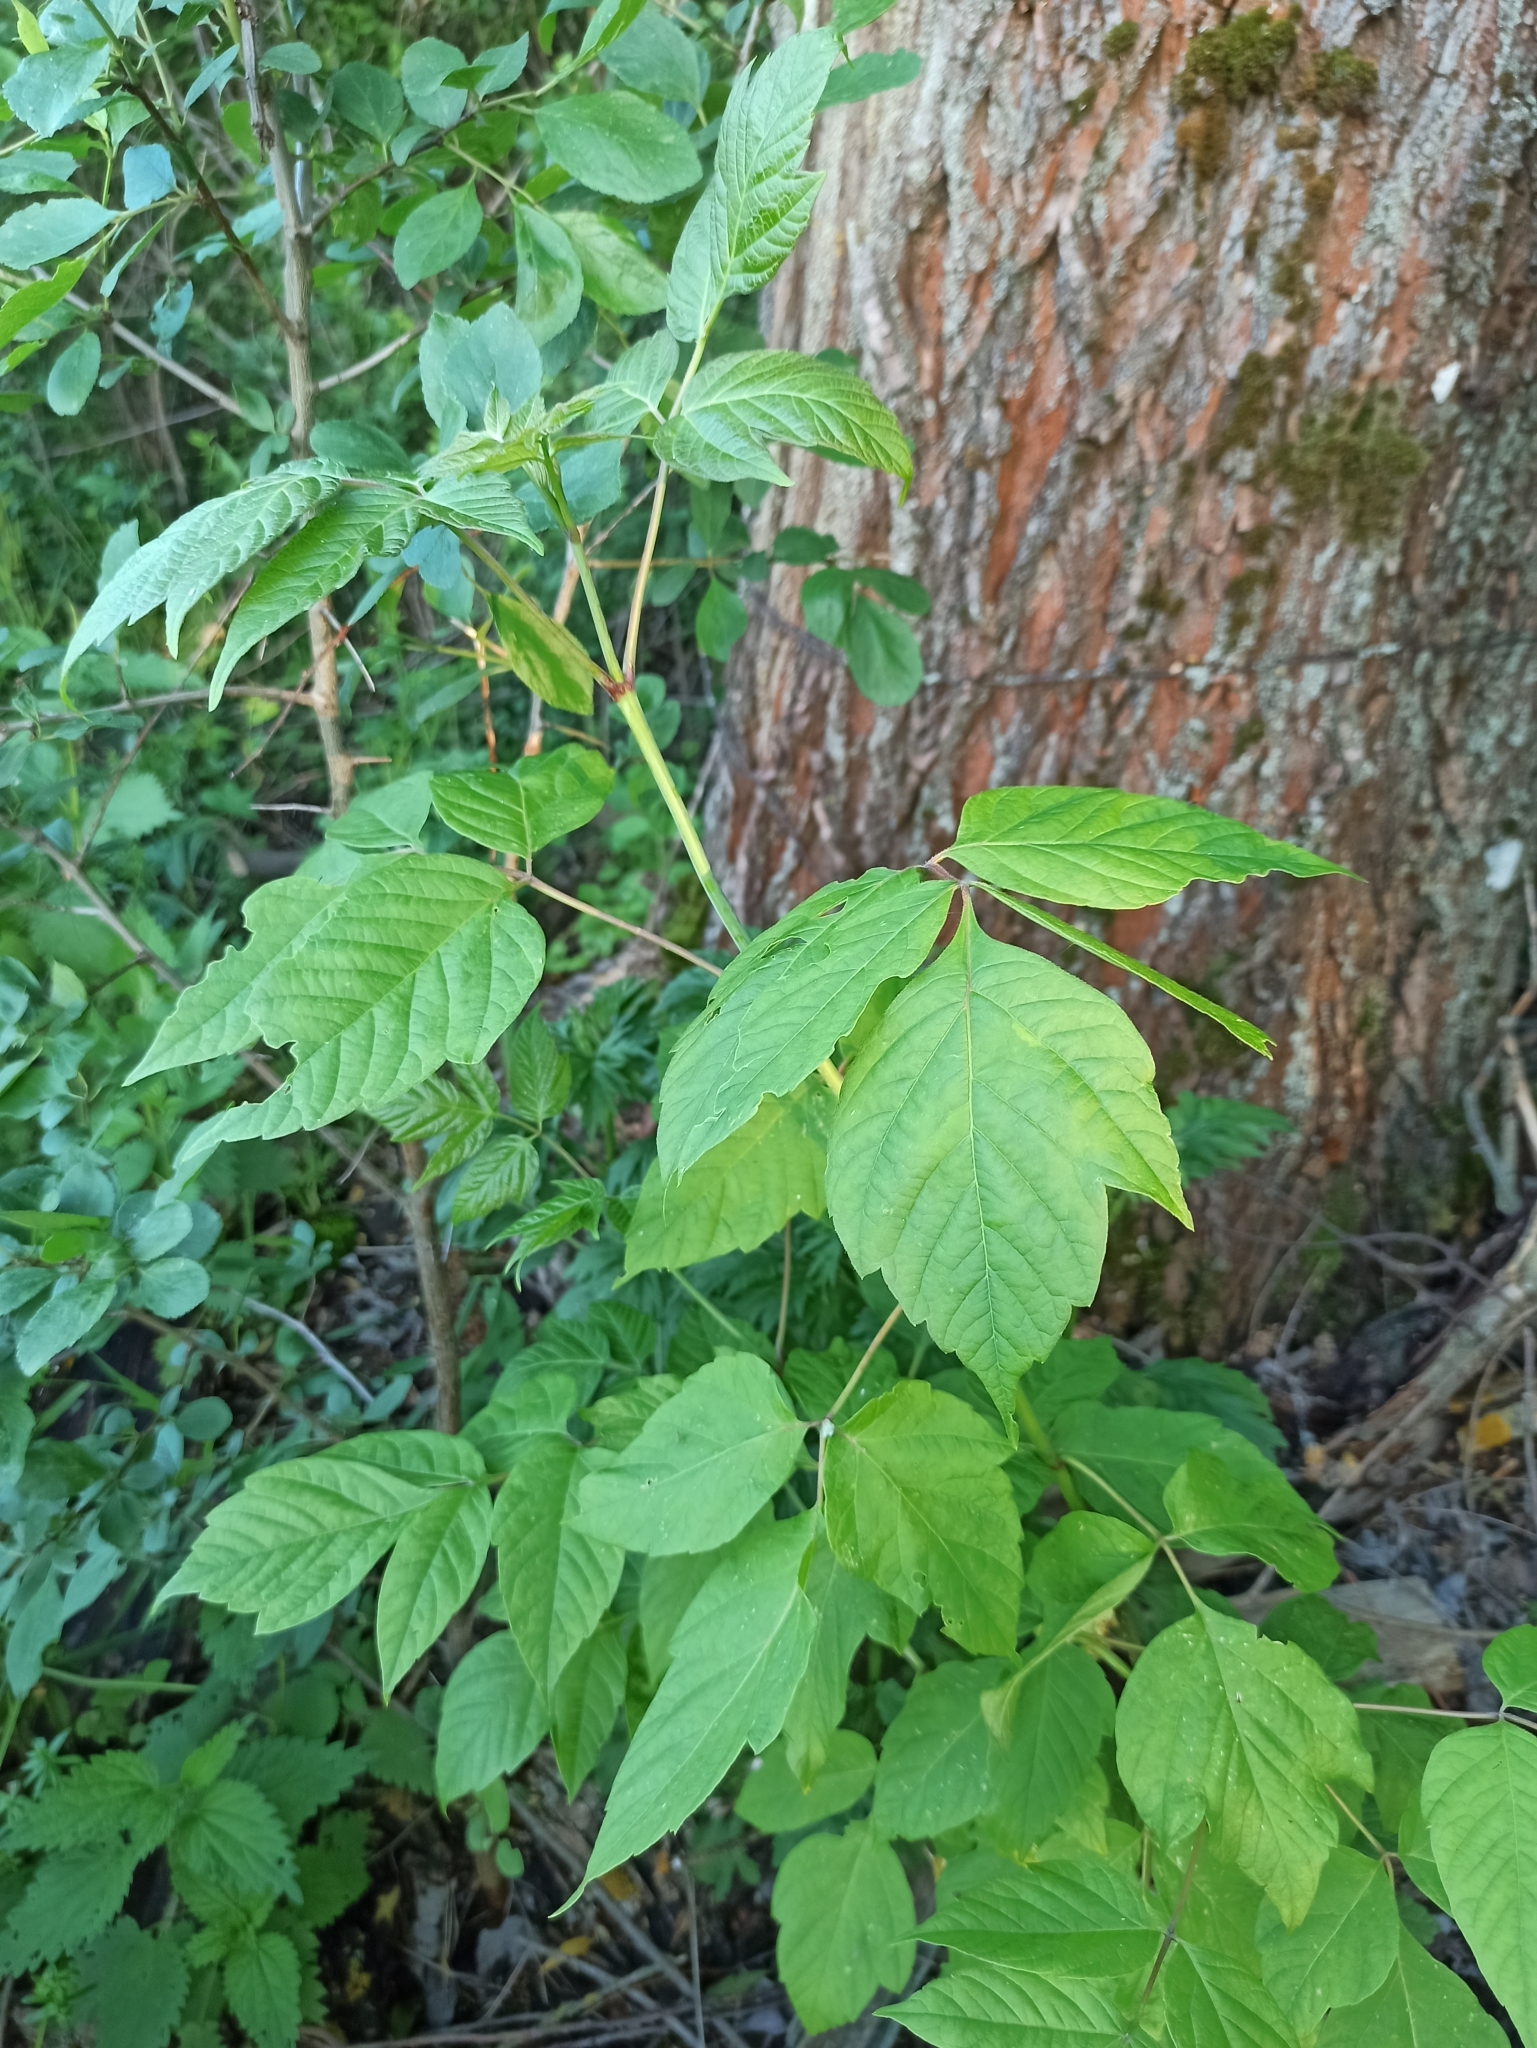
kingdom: Plantae
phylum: Tracheophyta
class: Magnoliopsida
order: Sapindales
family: Sapindaceae
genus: Acer
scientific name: Acer negundo
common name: Ashleaf maple
